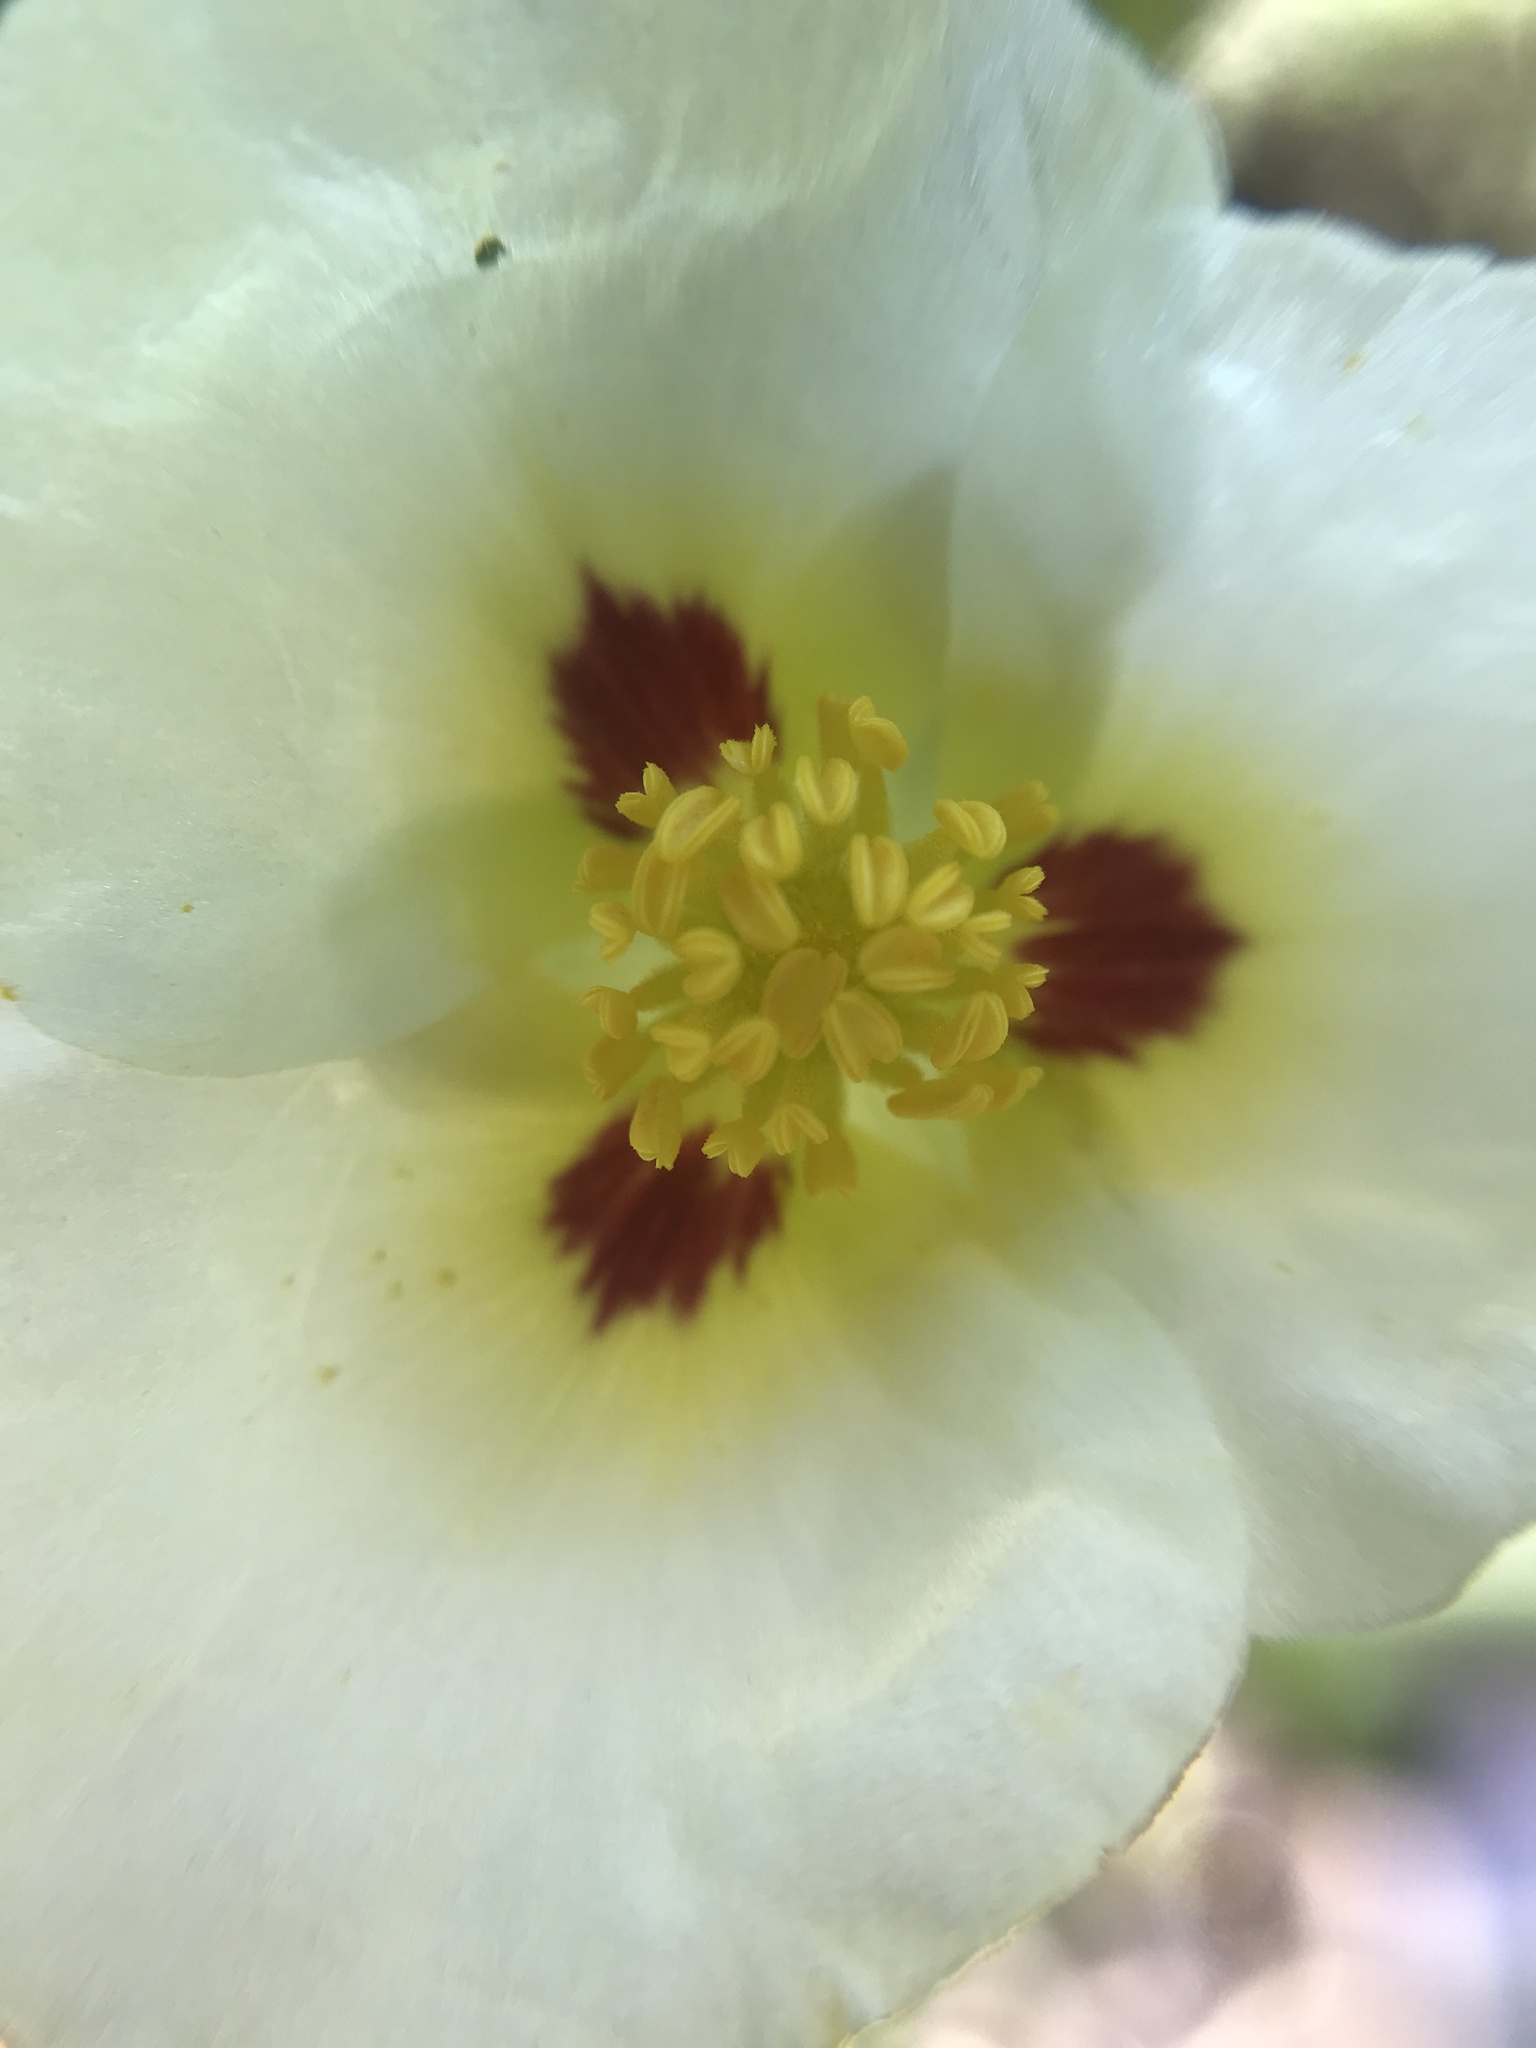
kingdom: Plantae
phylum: Tracheophyta
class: Liliopsida
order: Alismatales
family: Alismataceae
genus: Sagittaria
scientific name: Sagittaria montevidensis
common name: Giant arrowhead
